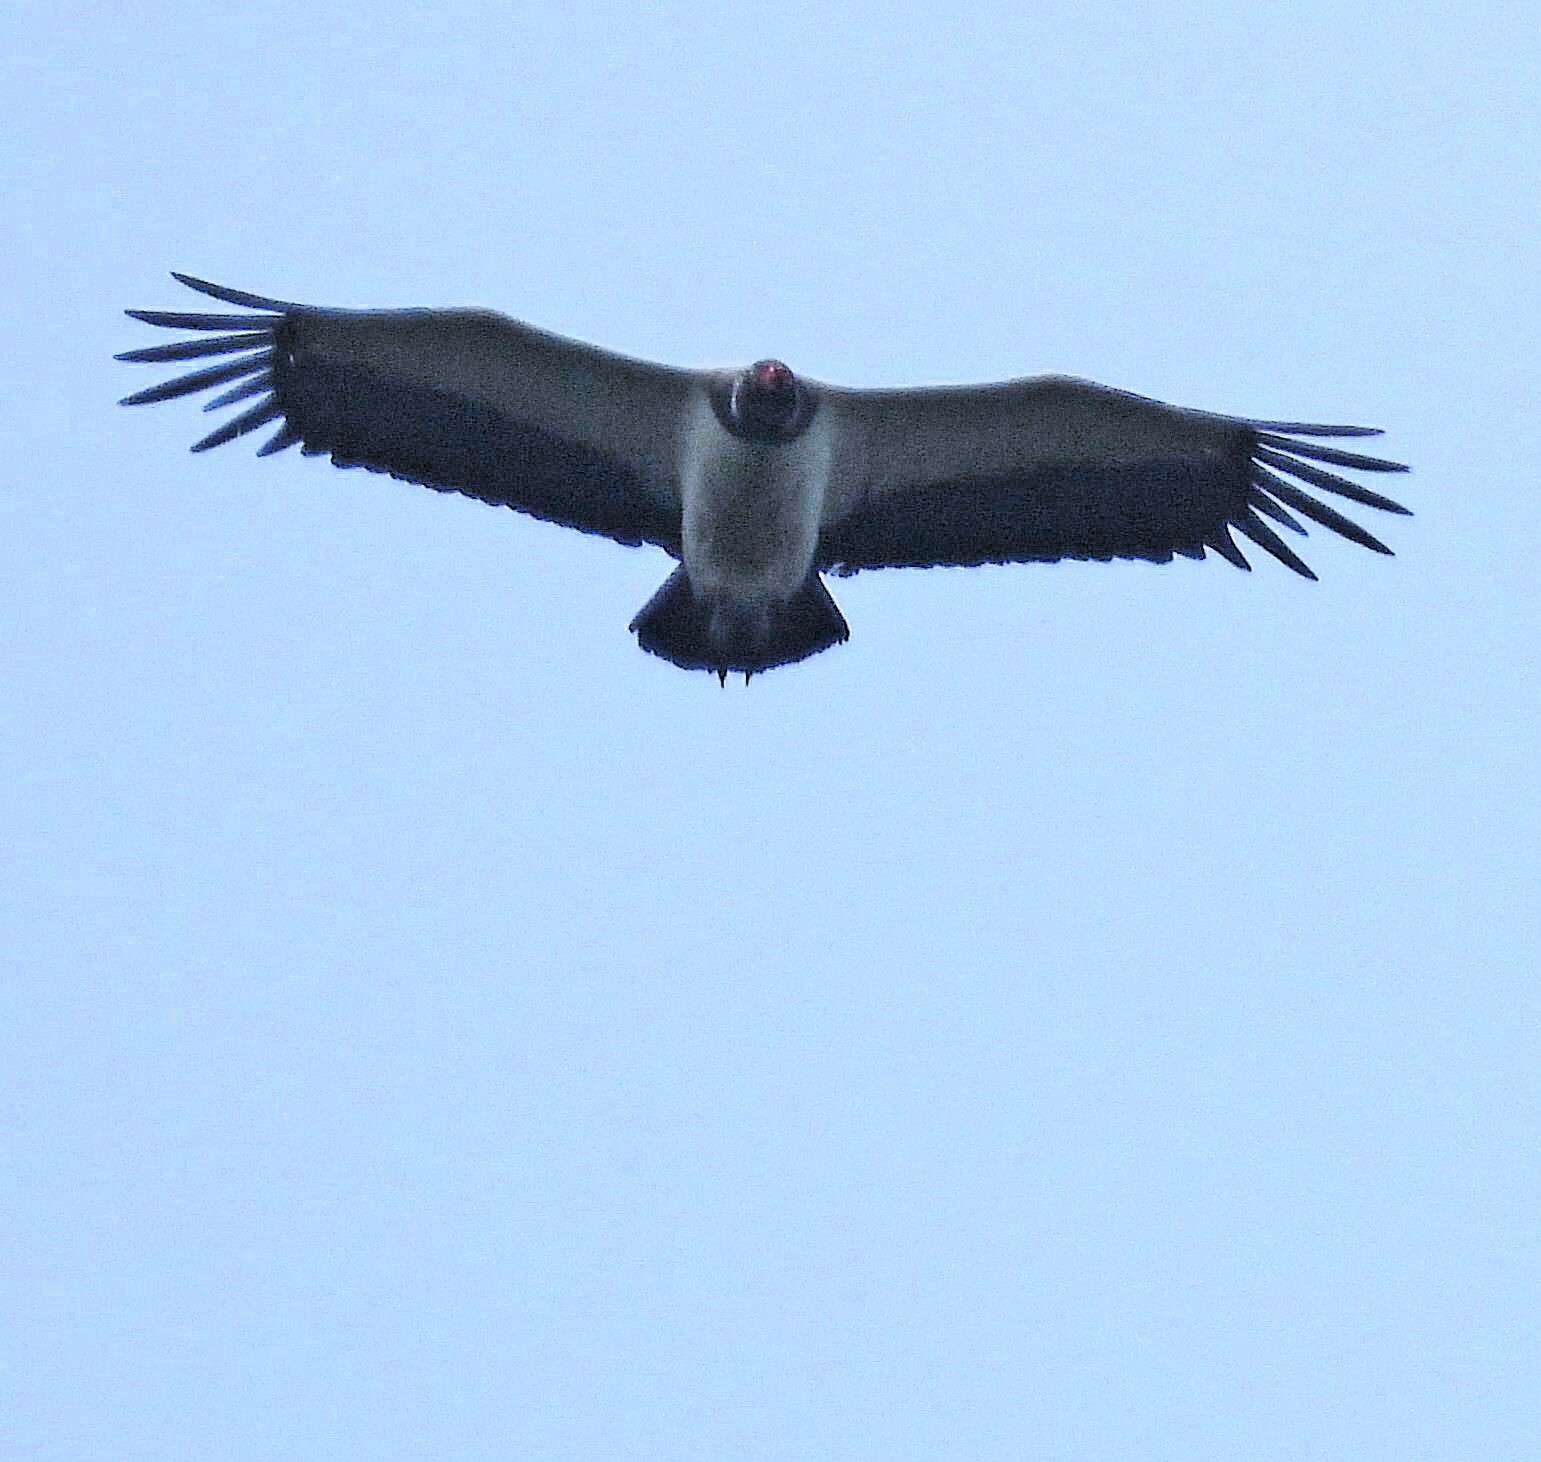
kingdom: Animalia
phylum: Chordata
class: Aves
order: Accipitriformes
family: Cathartidae
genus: Sarcoramphus
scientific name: Sarcoramphus papa
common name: King vulture
